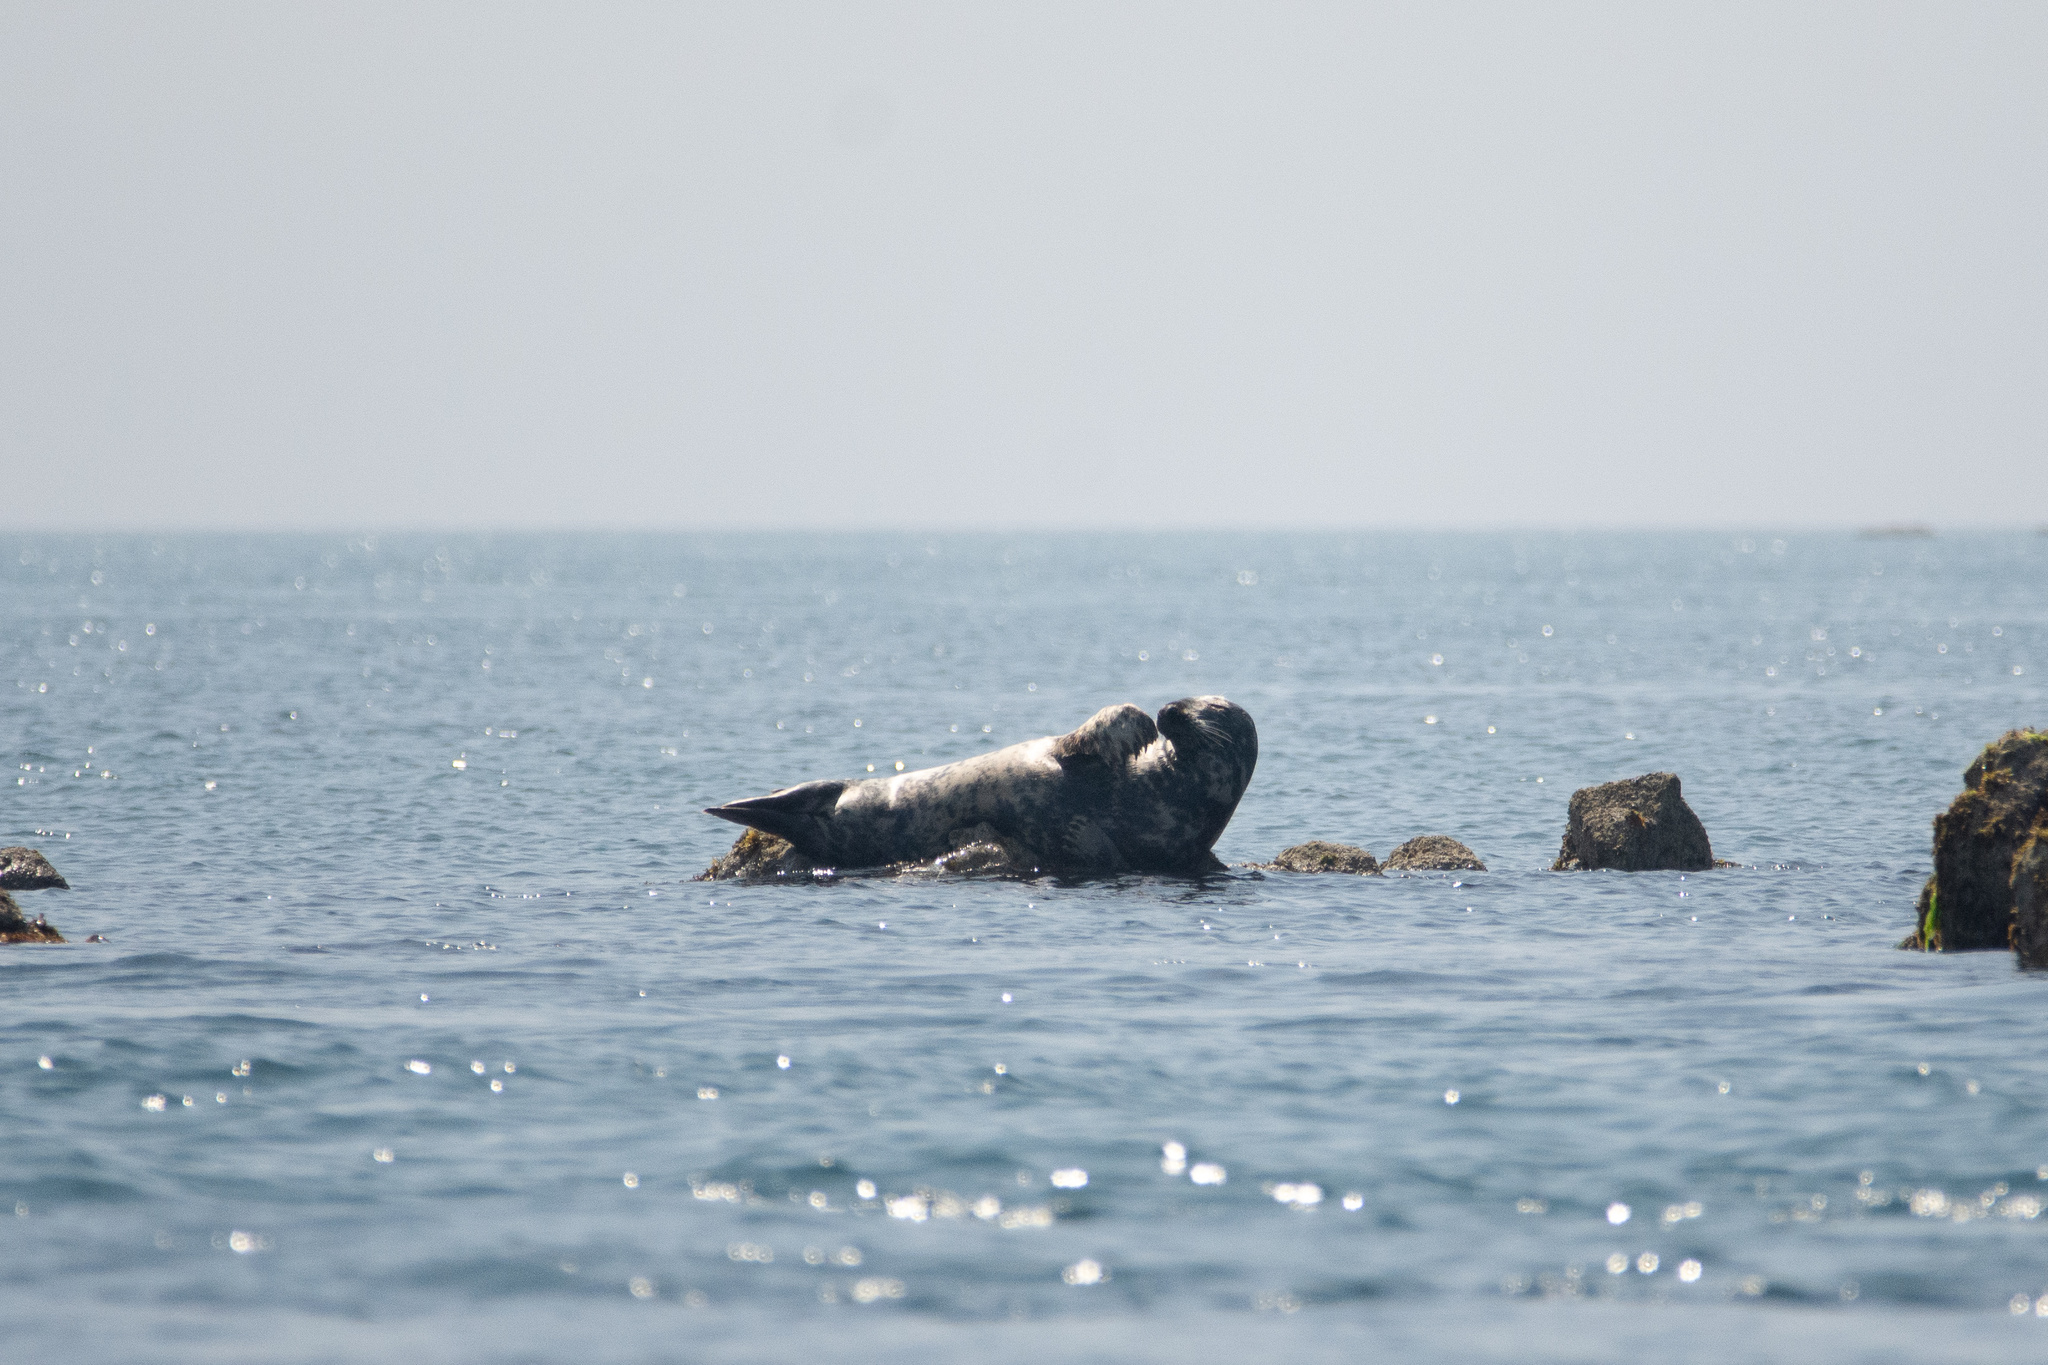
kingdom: Animalia
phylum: Chordata
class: Mammalia
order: Carnivora
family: Phocidae
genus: Halichoerus
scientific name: Halichoerus grypus
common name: Grey seal
